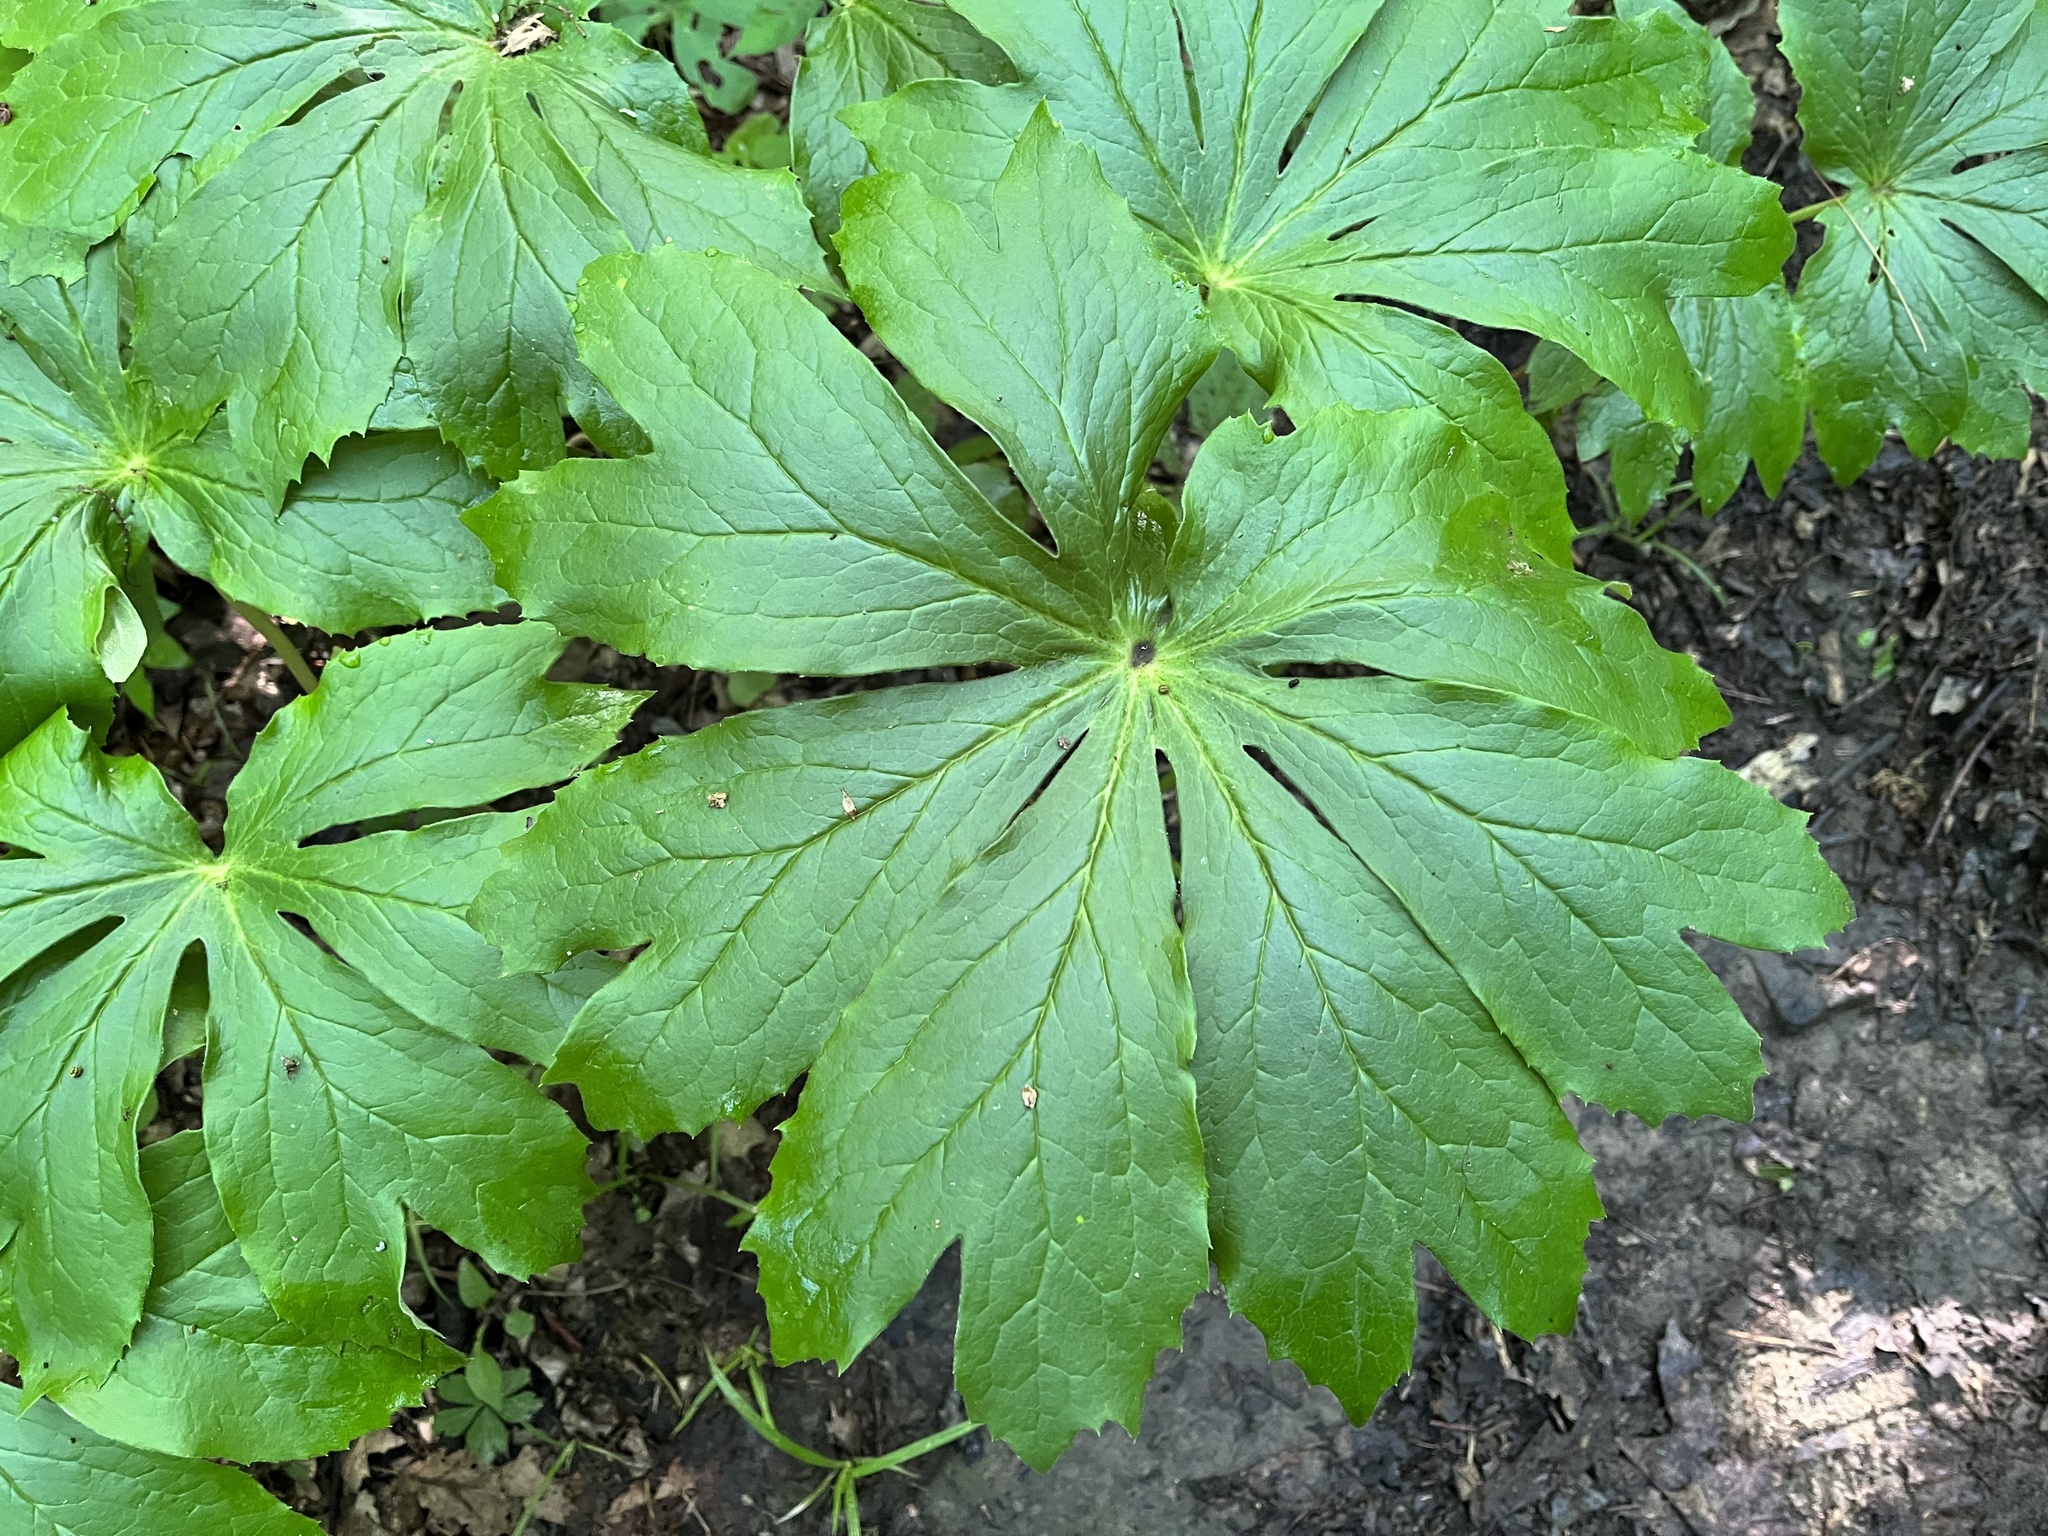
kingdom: Plantae
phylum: Tracheophyta
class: Magnoliopsida
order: Ranunculales
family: Berberidaceae
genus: Podophyllum
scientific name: Podophyllum peltatum
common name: Wild mandrake
